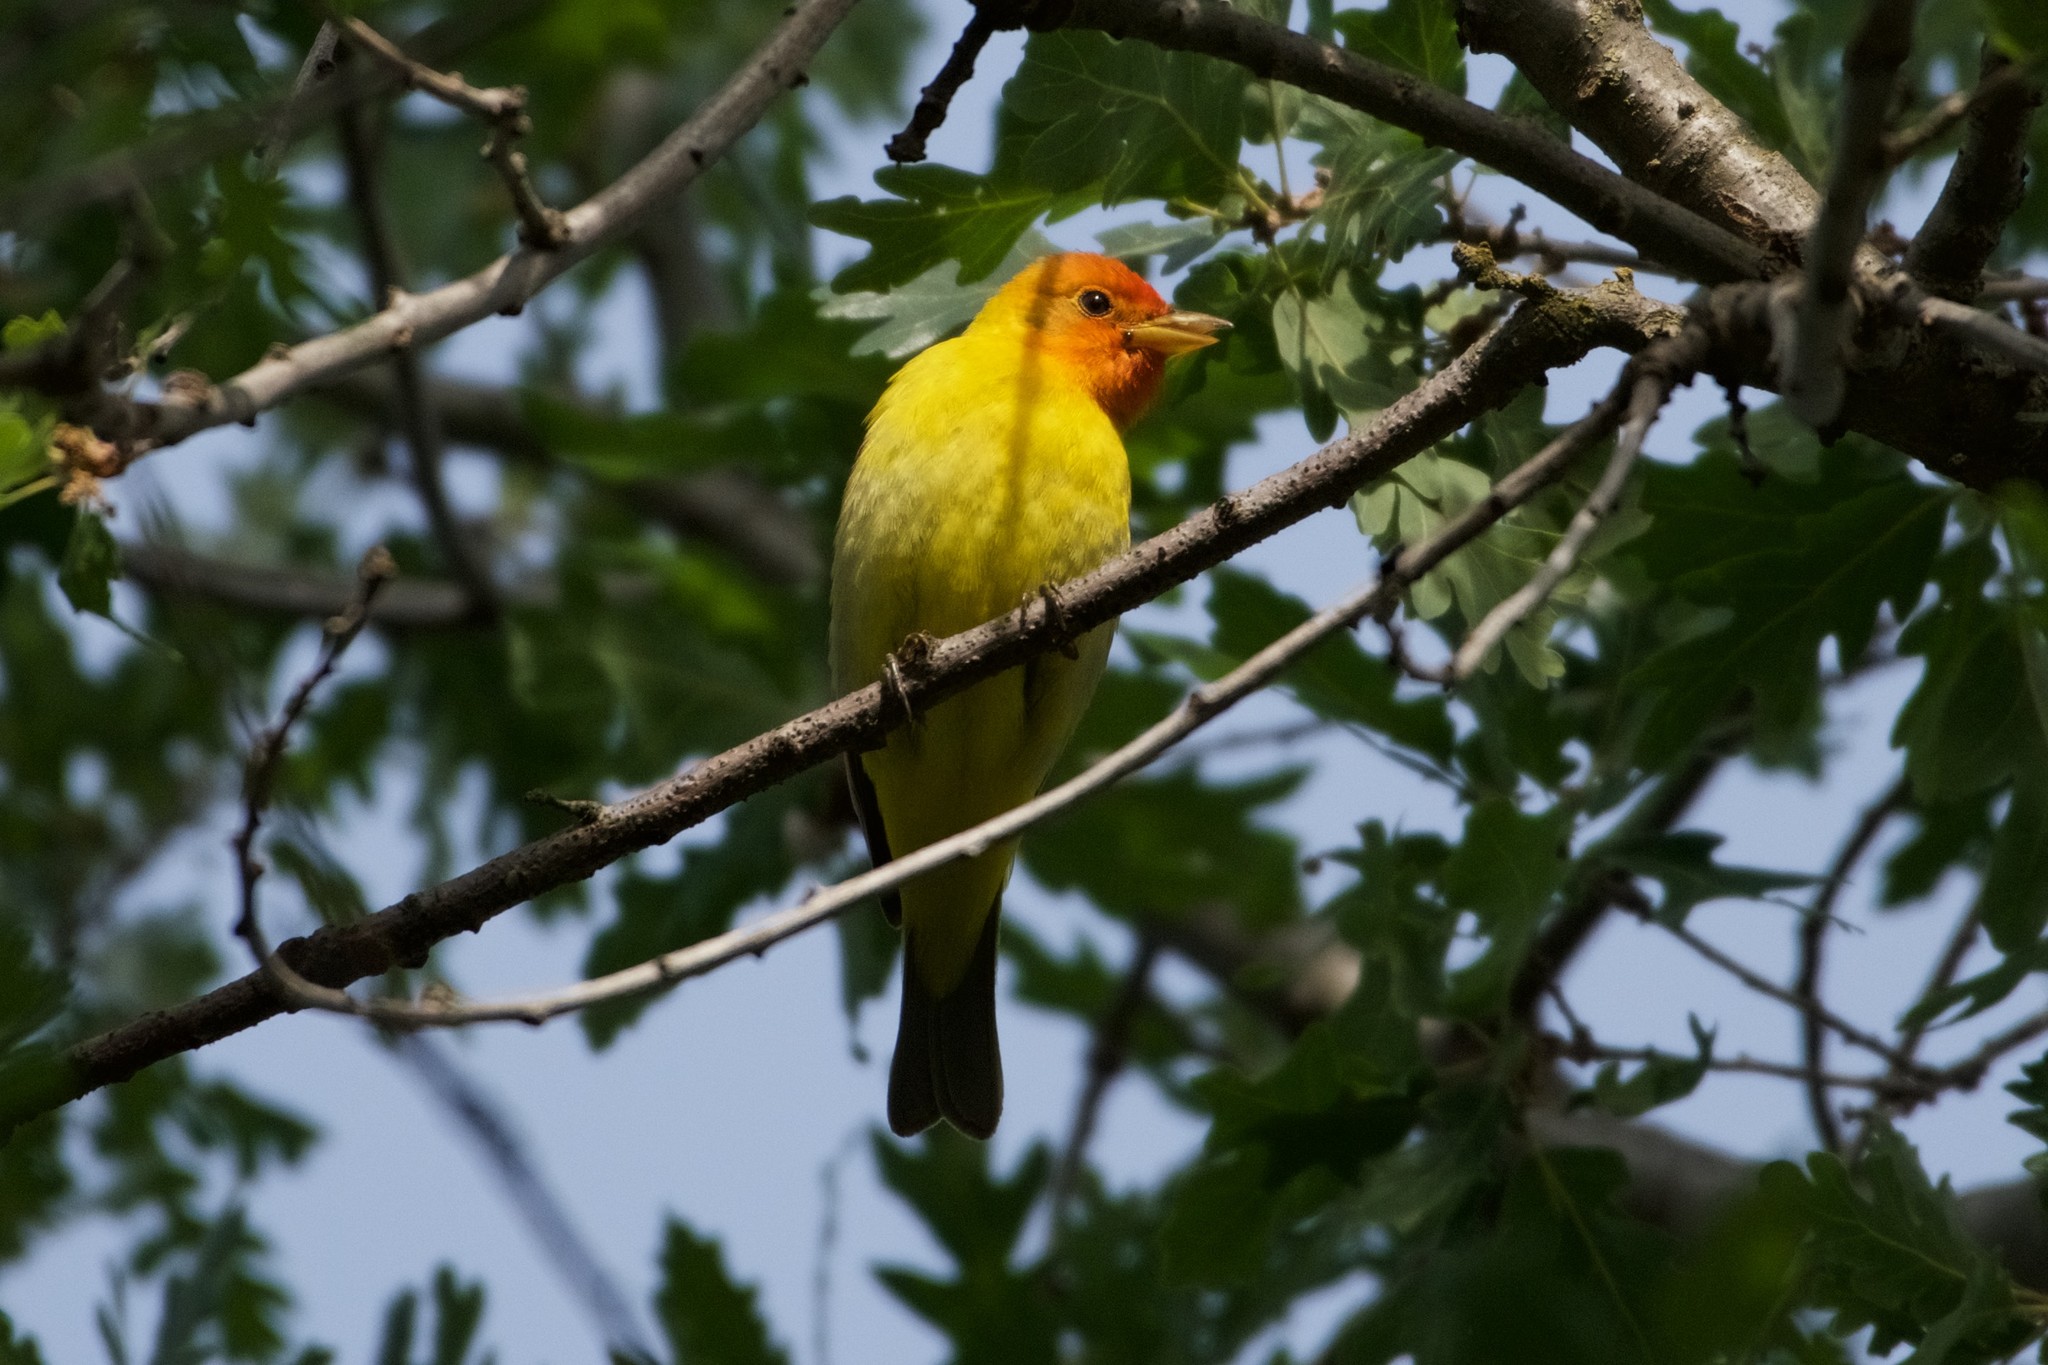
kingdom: Animalia
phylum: Chordata
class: Aves
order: Passeriformes
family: Cardinalidae
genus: Piranga
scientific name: Piranga ludoviciana
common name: Western tanager
